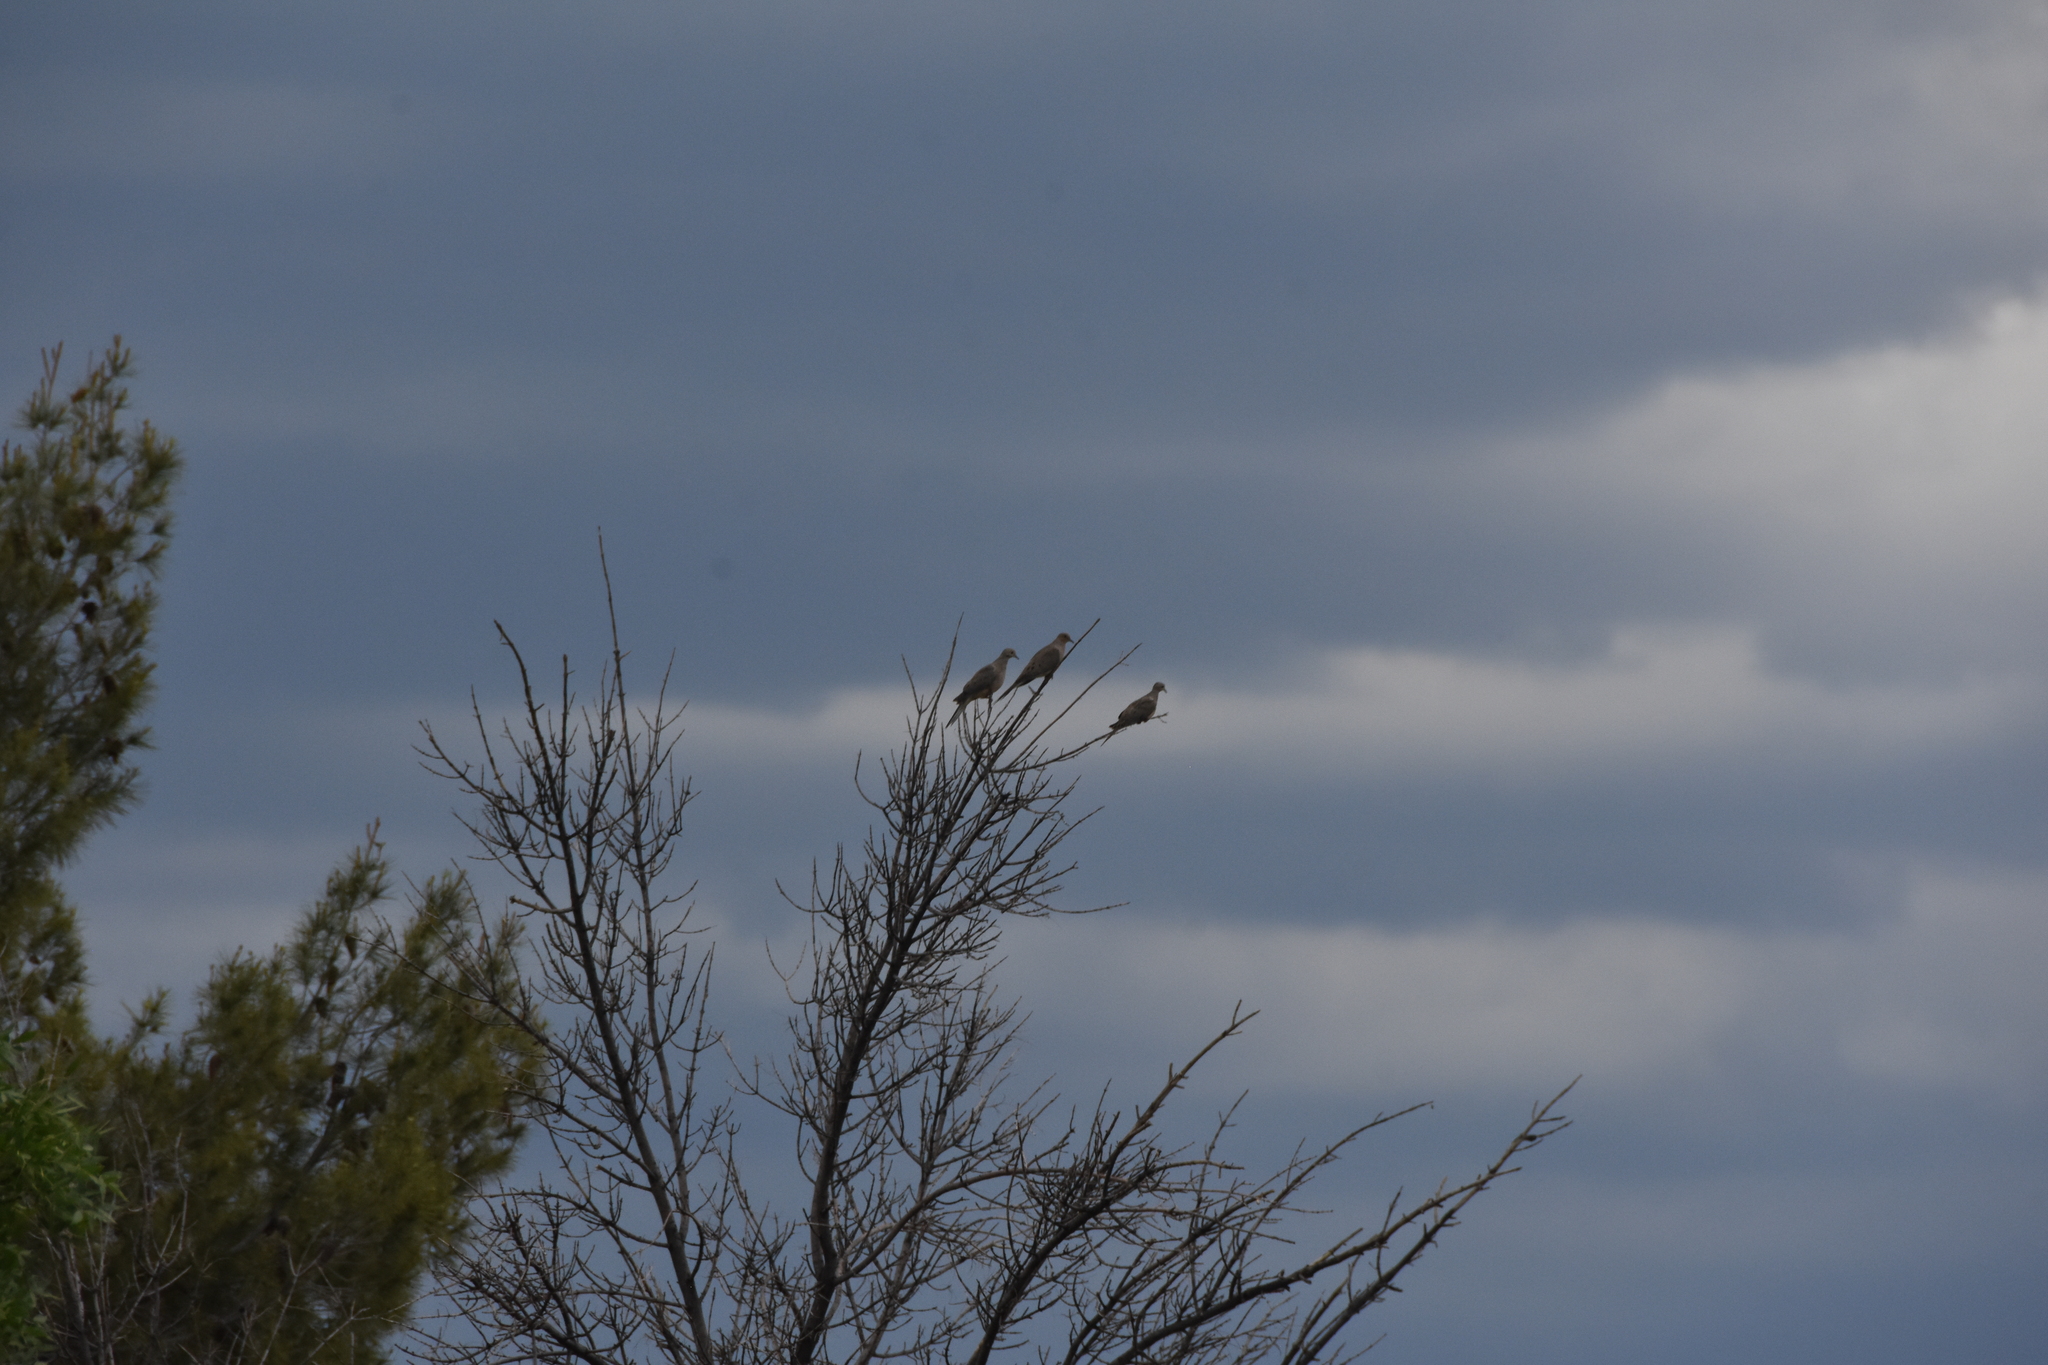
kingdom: Animalia
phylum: Chordata
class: Aves
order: Columbiformes
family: Columbidae
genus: Zenaida
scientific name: Zenaida macroura
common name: Mourning dove
